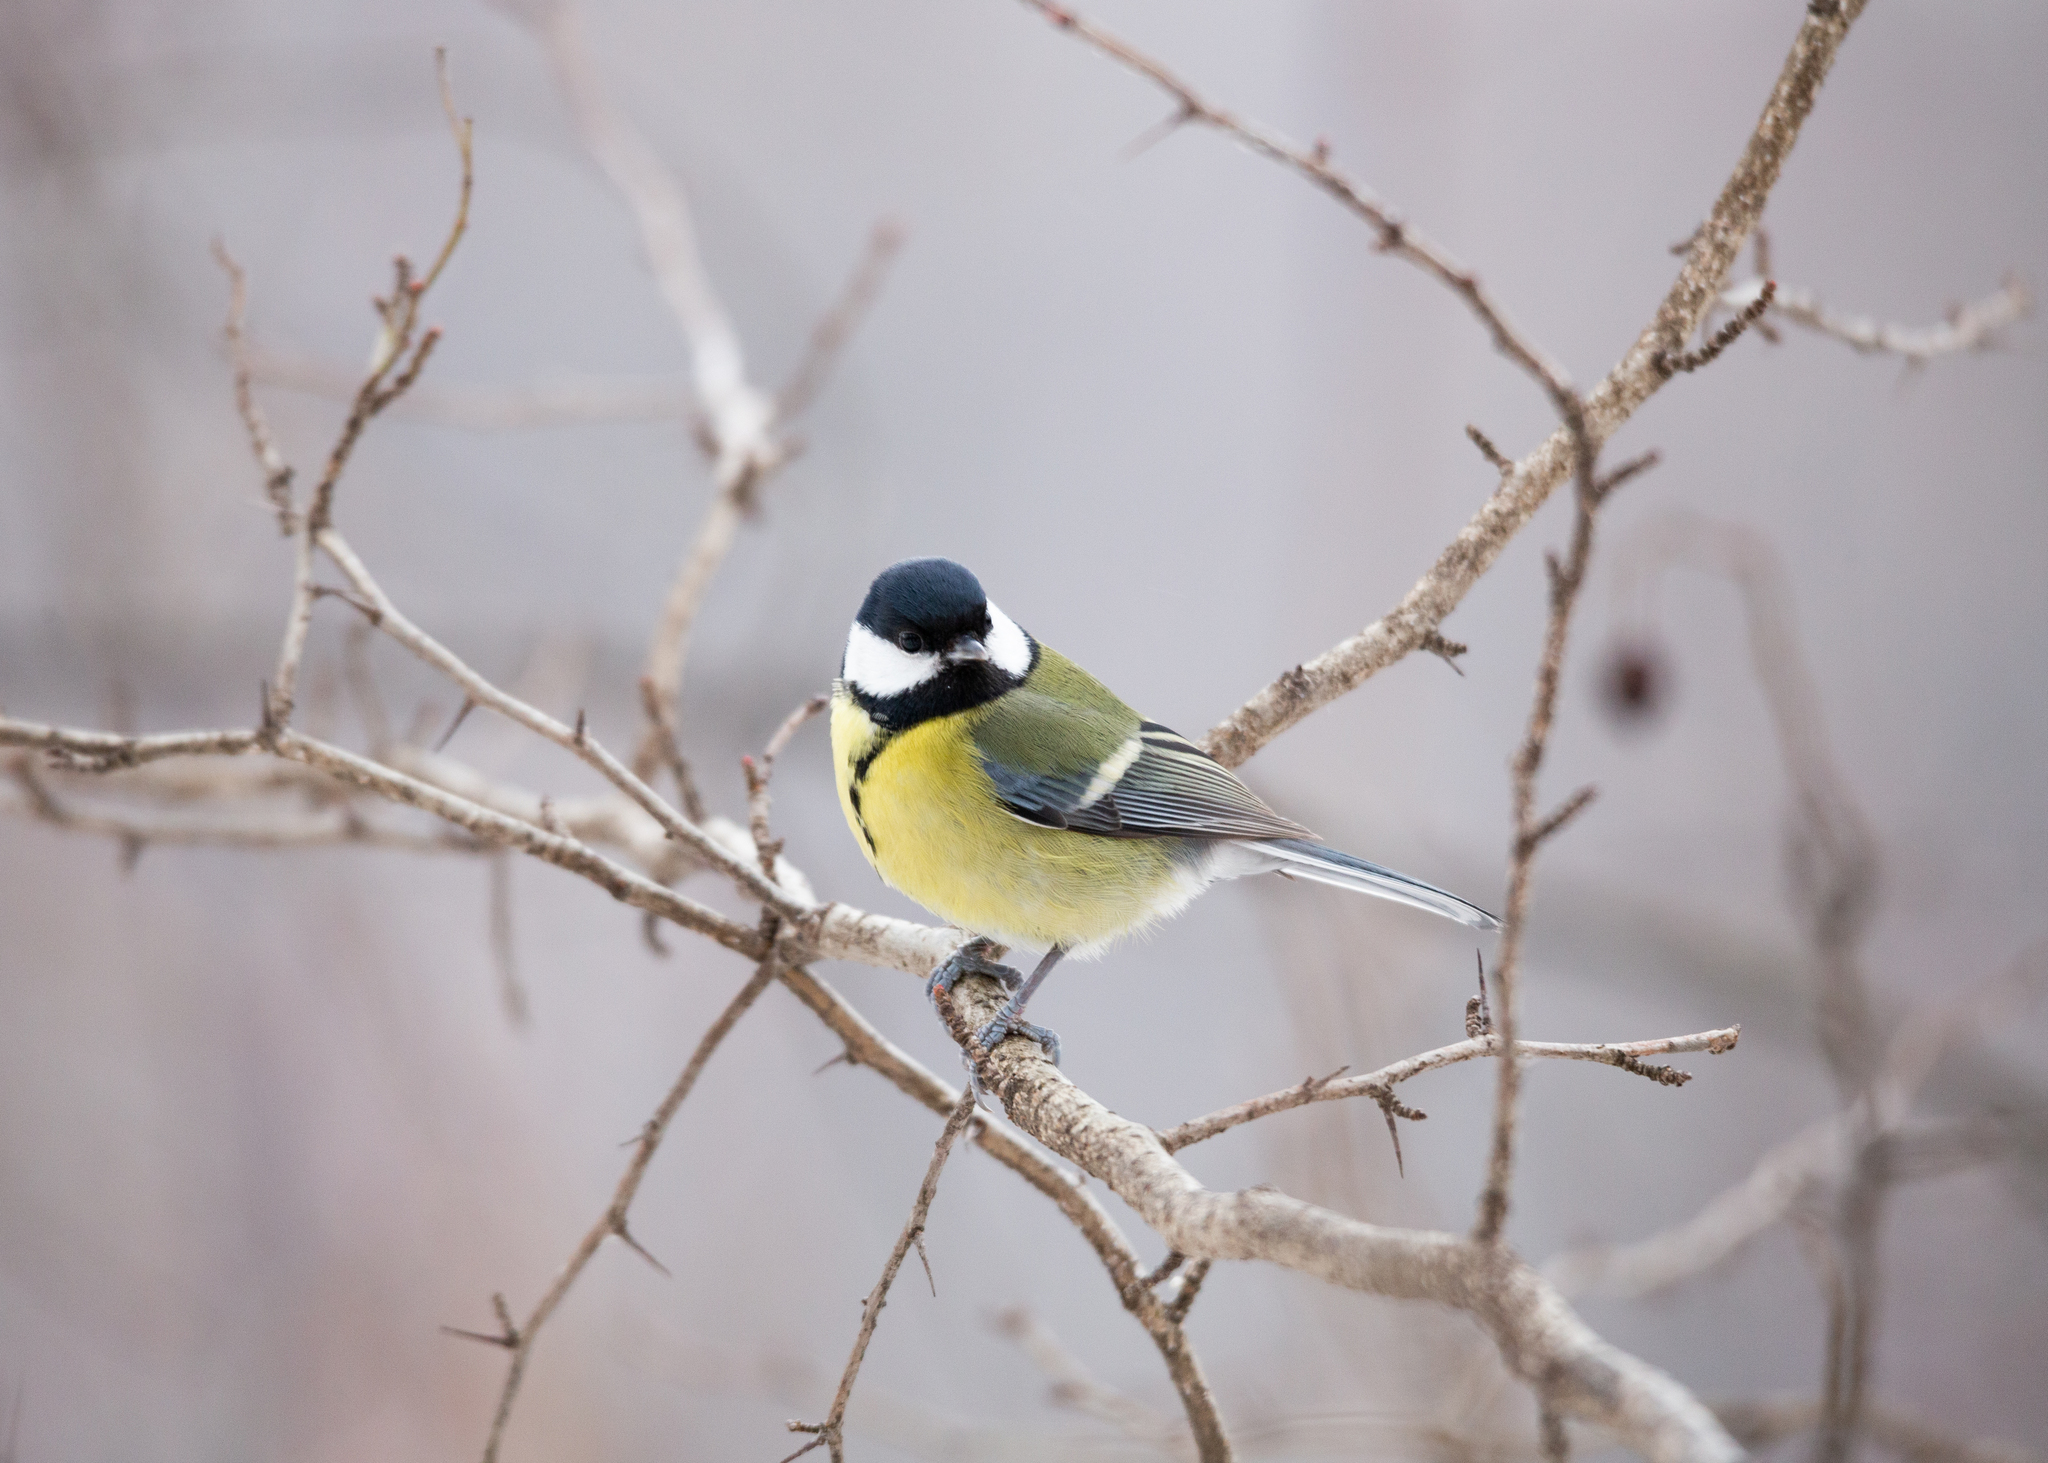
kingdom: Animalia
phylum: Chordata
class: Aves
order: Passeriformes
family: Paridae
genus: Parus
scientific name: Parus major
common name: Great tit
